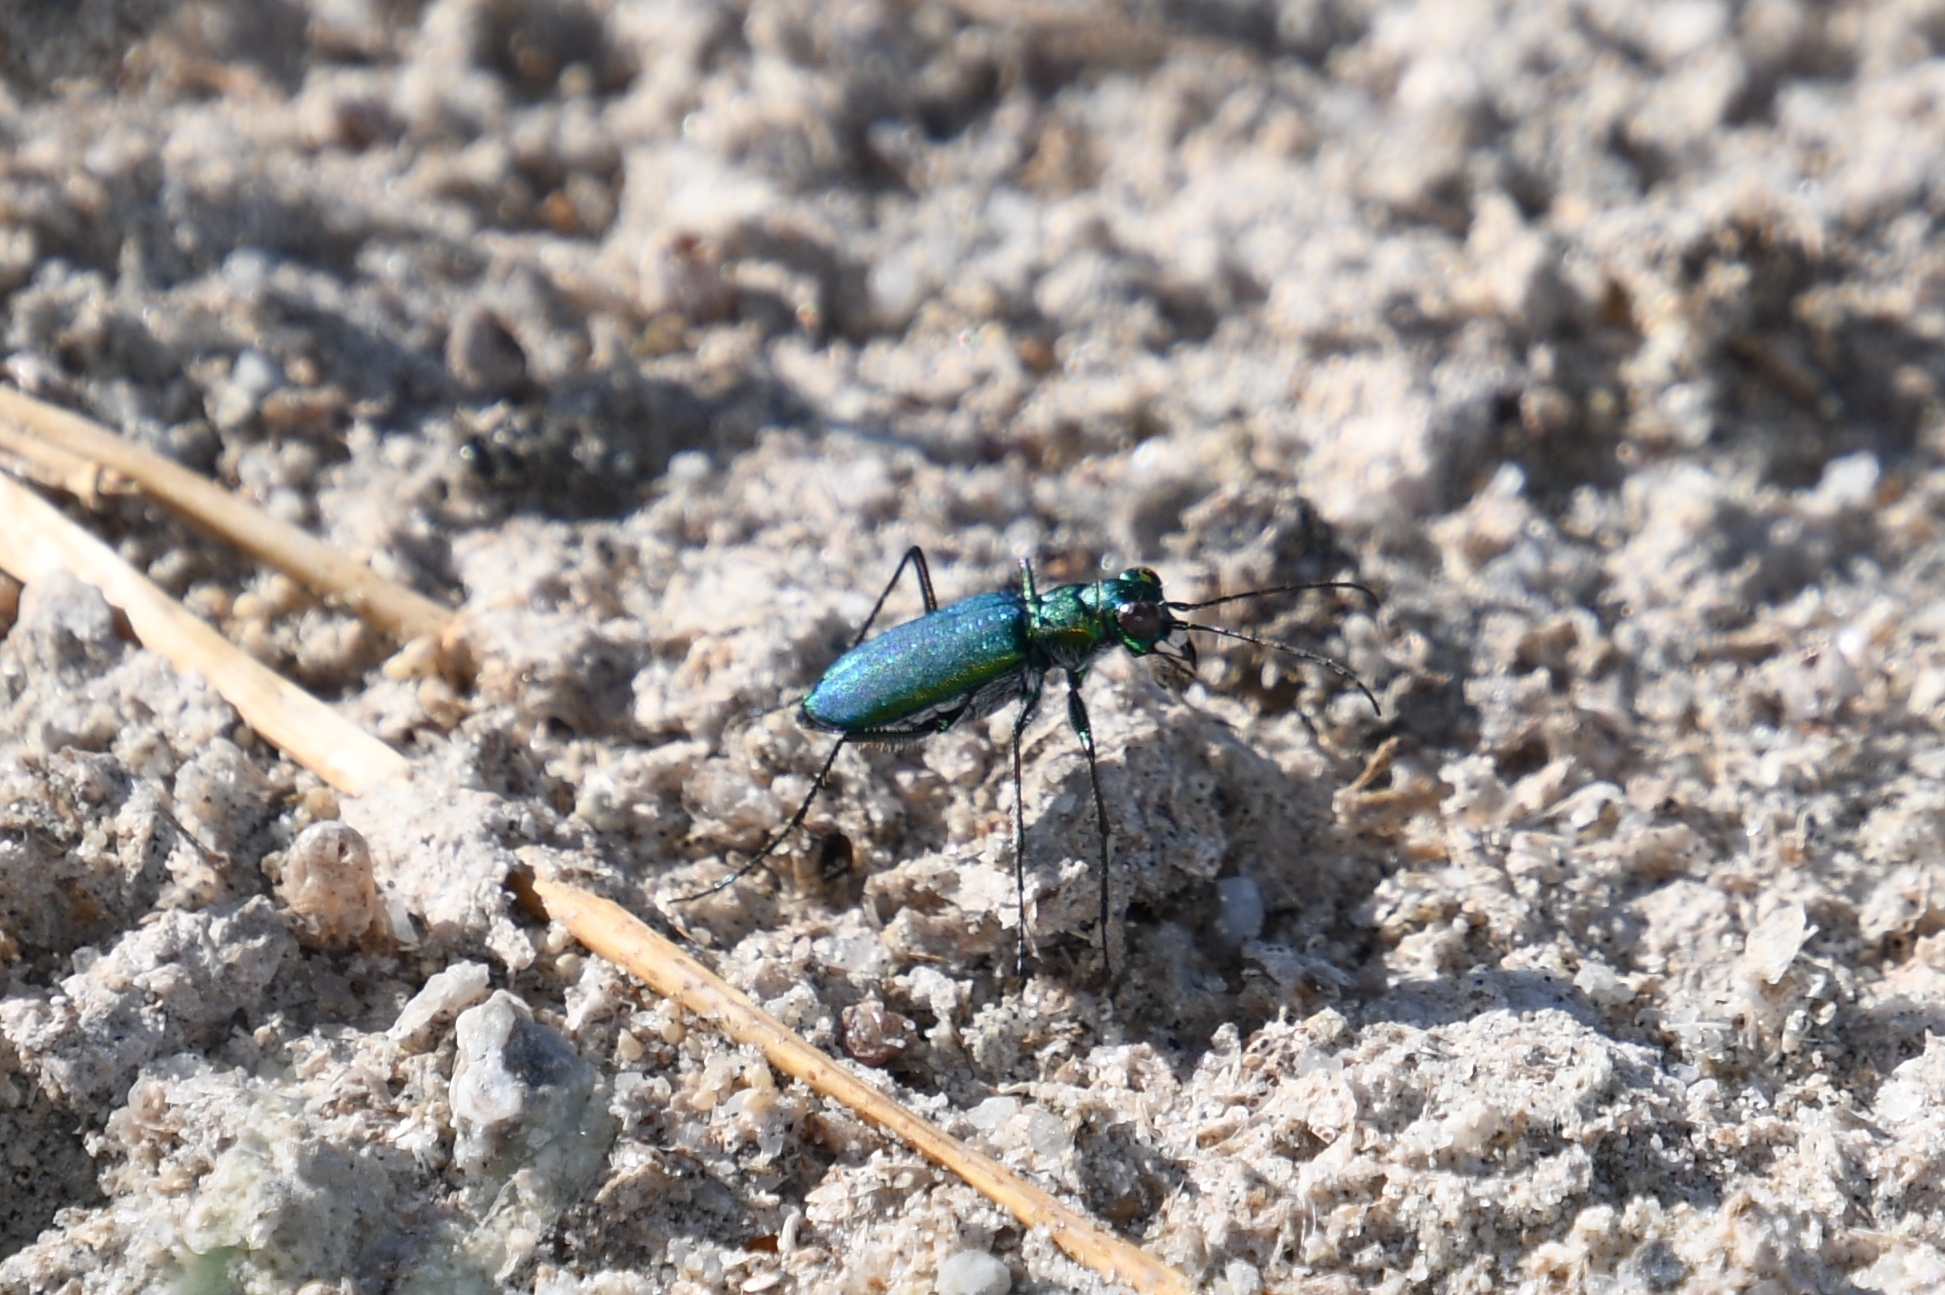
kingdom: Animalia
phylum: Arthropoda
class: Insecta
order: Coleoptera
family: Carabidae
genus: Cicindela
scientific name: Cicindela punctulata
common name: Punctured tiger beetle
